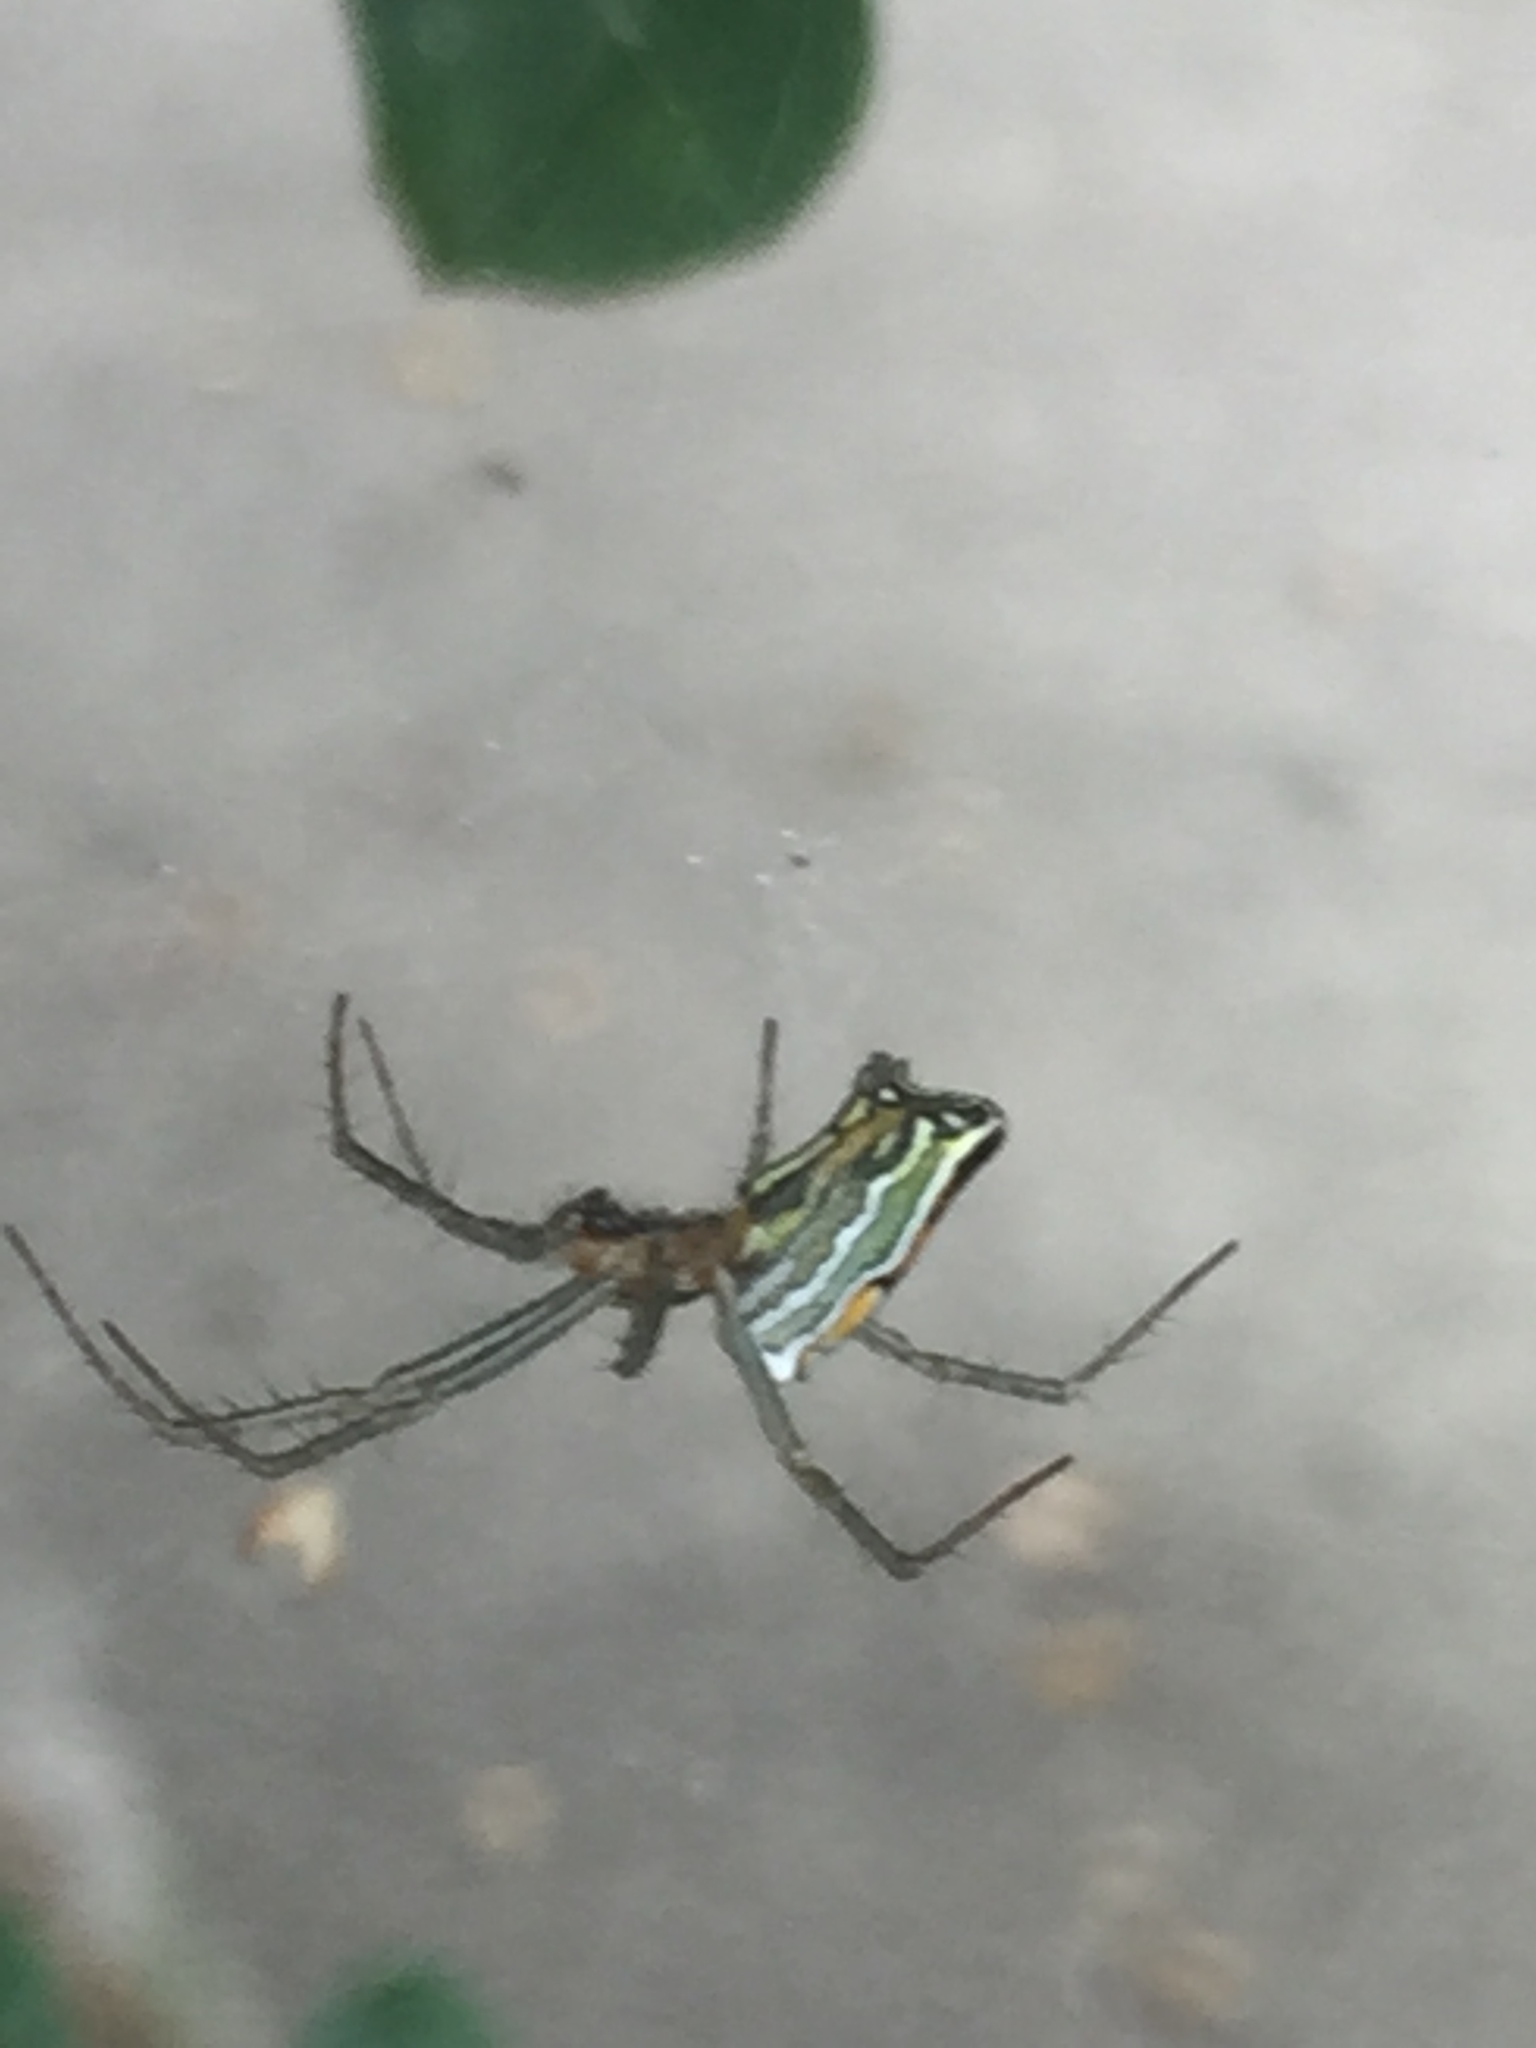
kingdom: Animalia
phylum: Arthropoda
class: Arachnida
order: Araneae
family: Araneidae
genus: Mecynogea
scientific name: Mecynogea lemniscata
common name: Orb weavers
